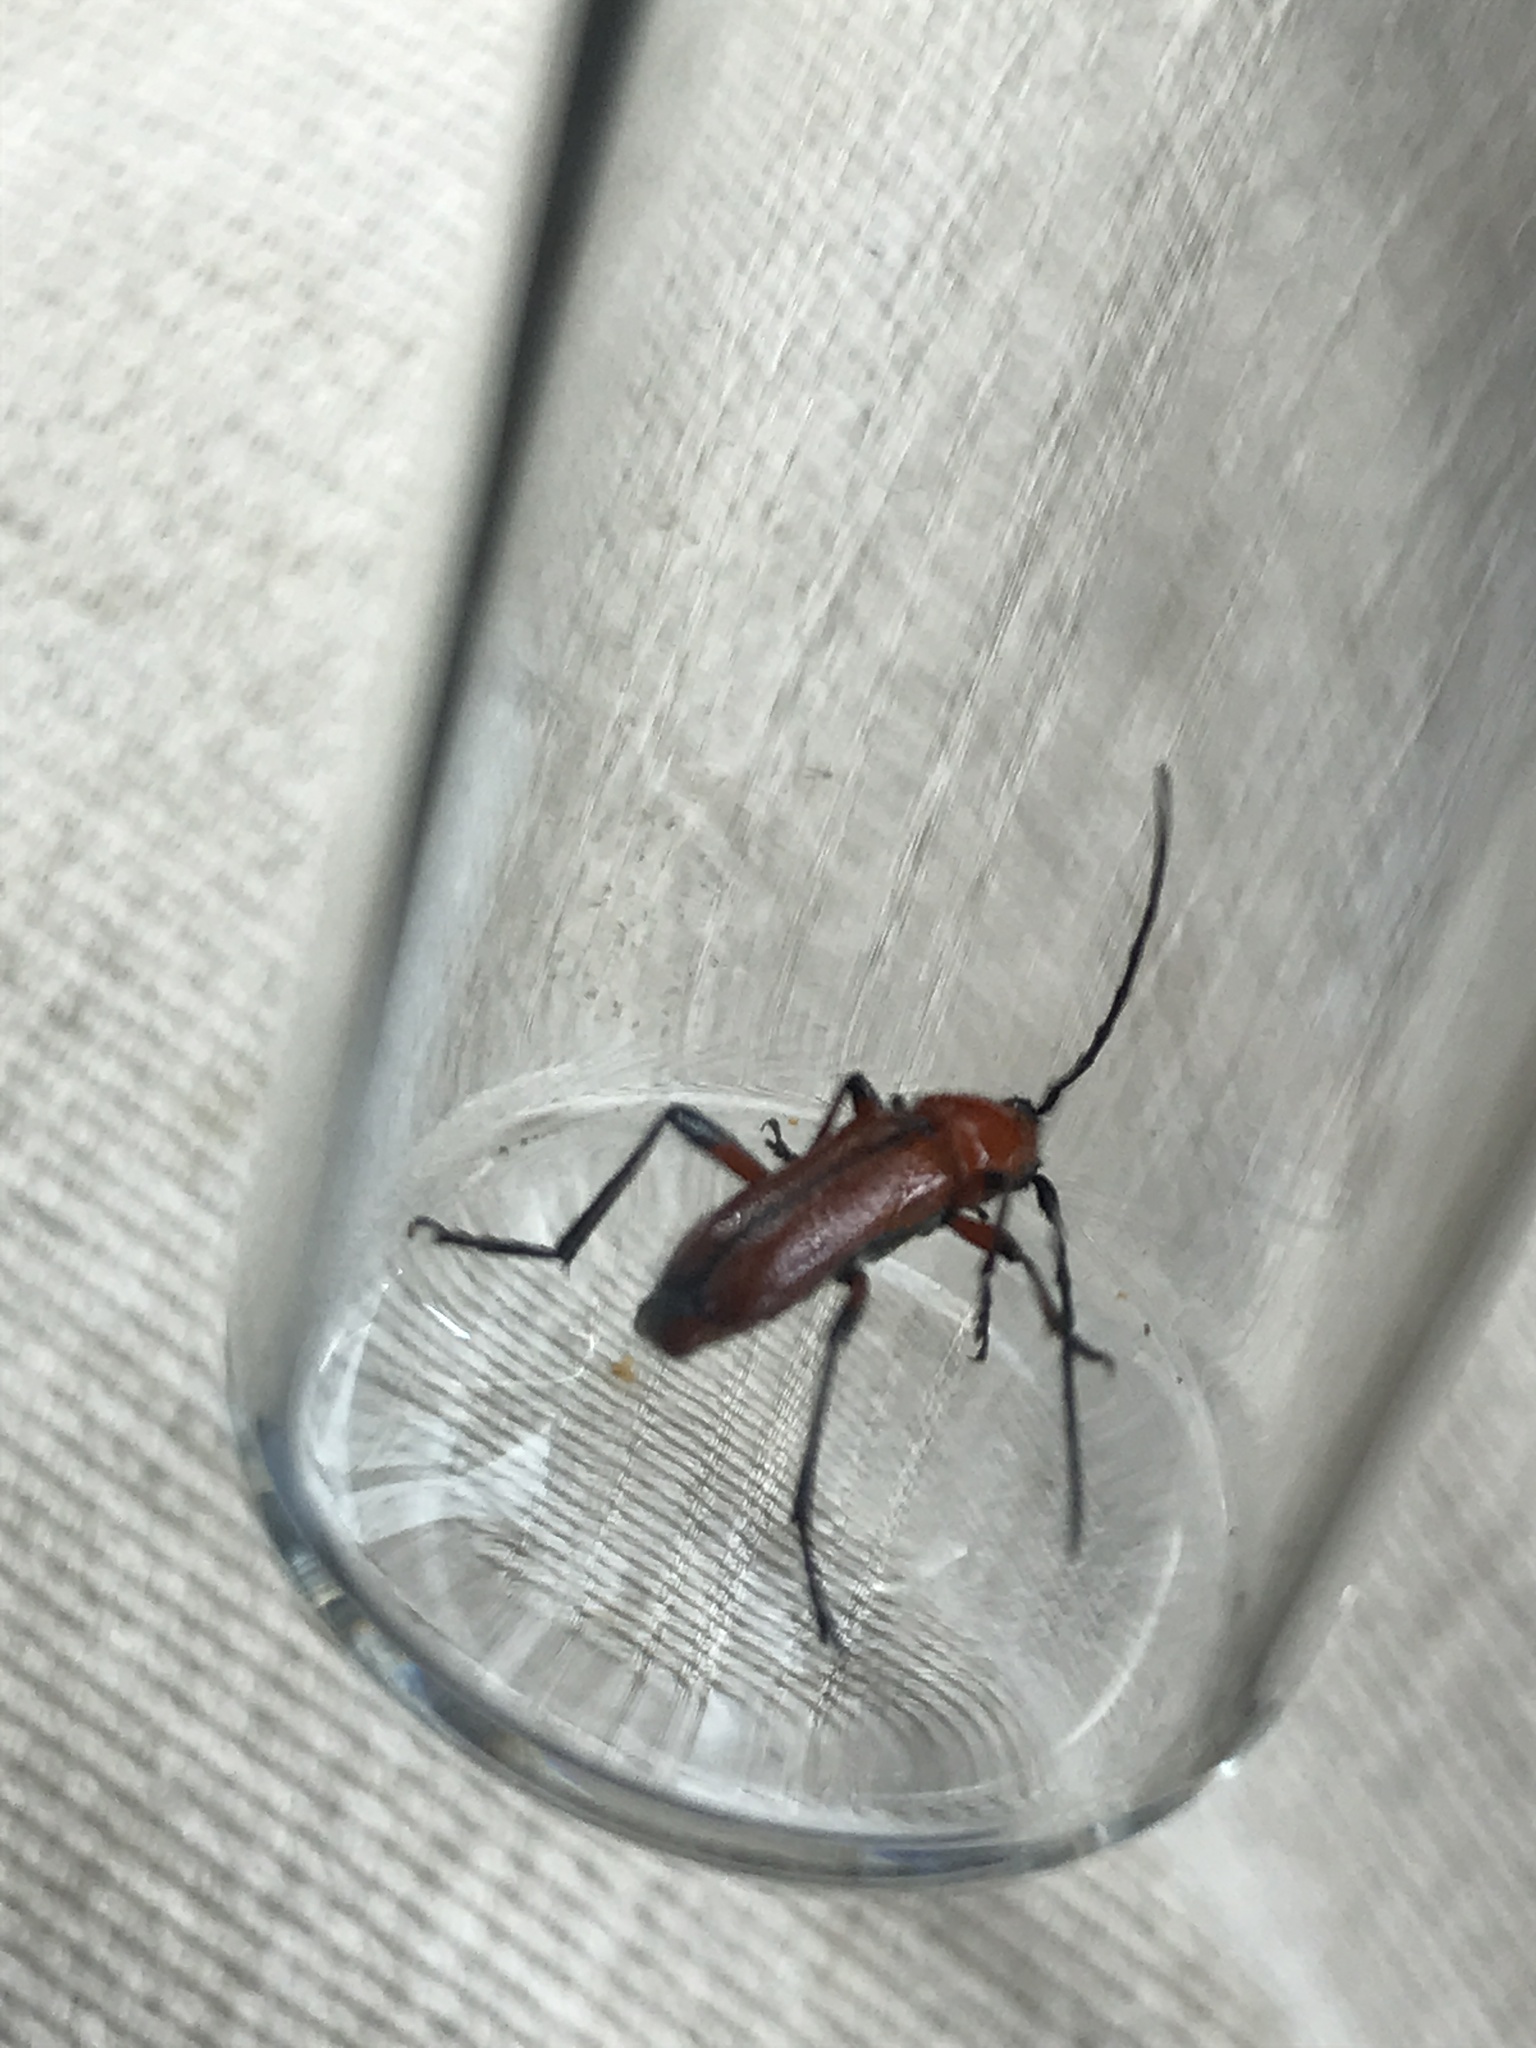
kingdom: Animalia
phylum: Arthropoda
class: Insecta
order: Coleoptera
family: Cerambycidae
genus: Batyle
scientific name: Batyle suturalis
